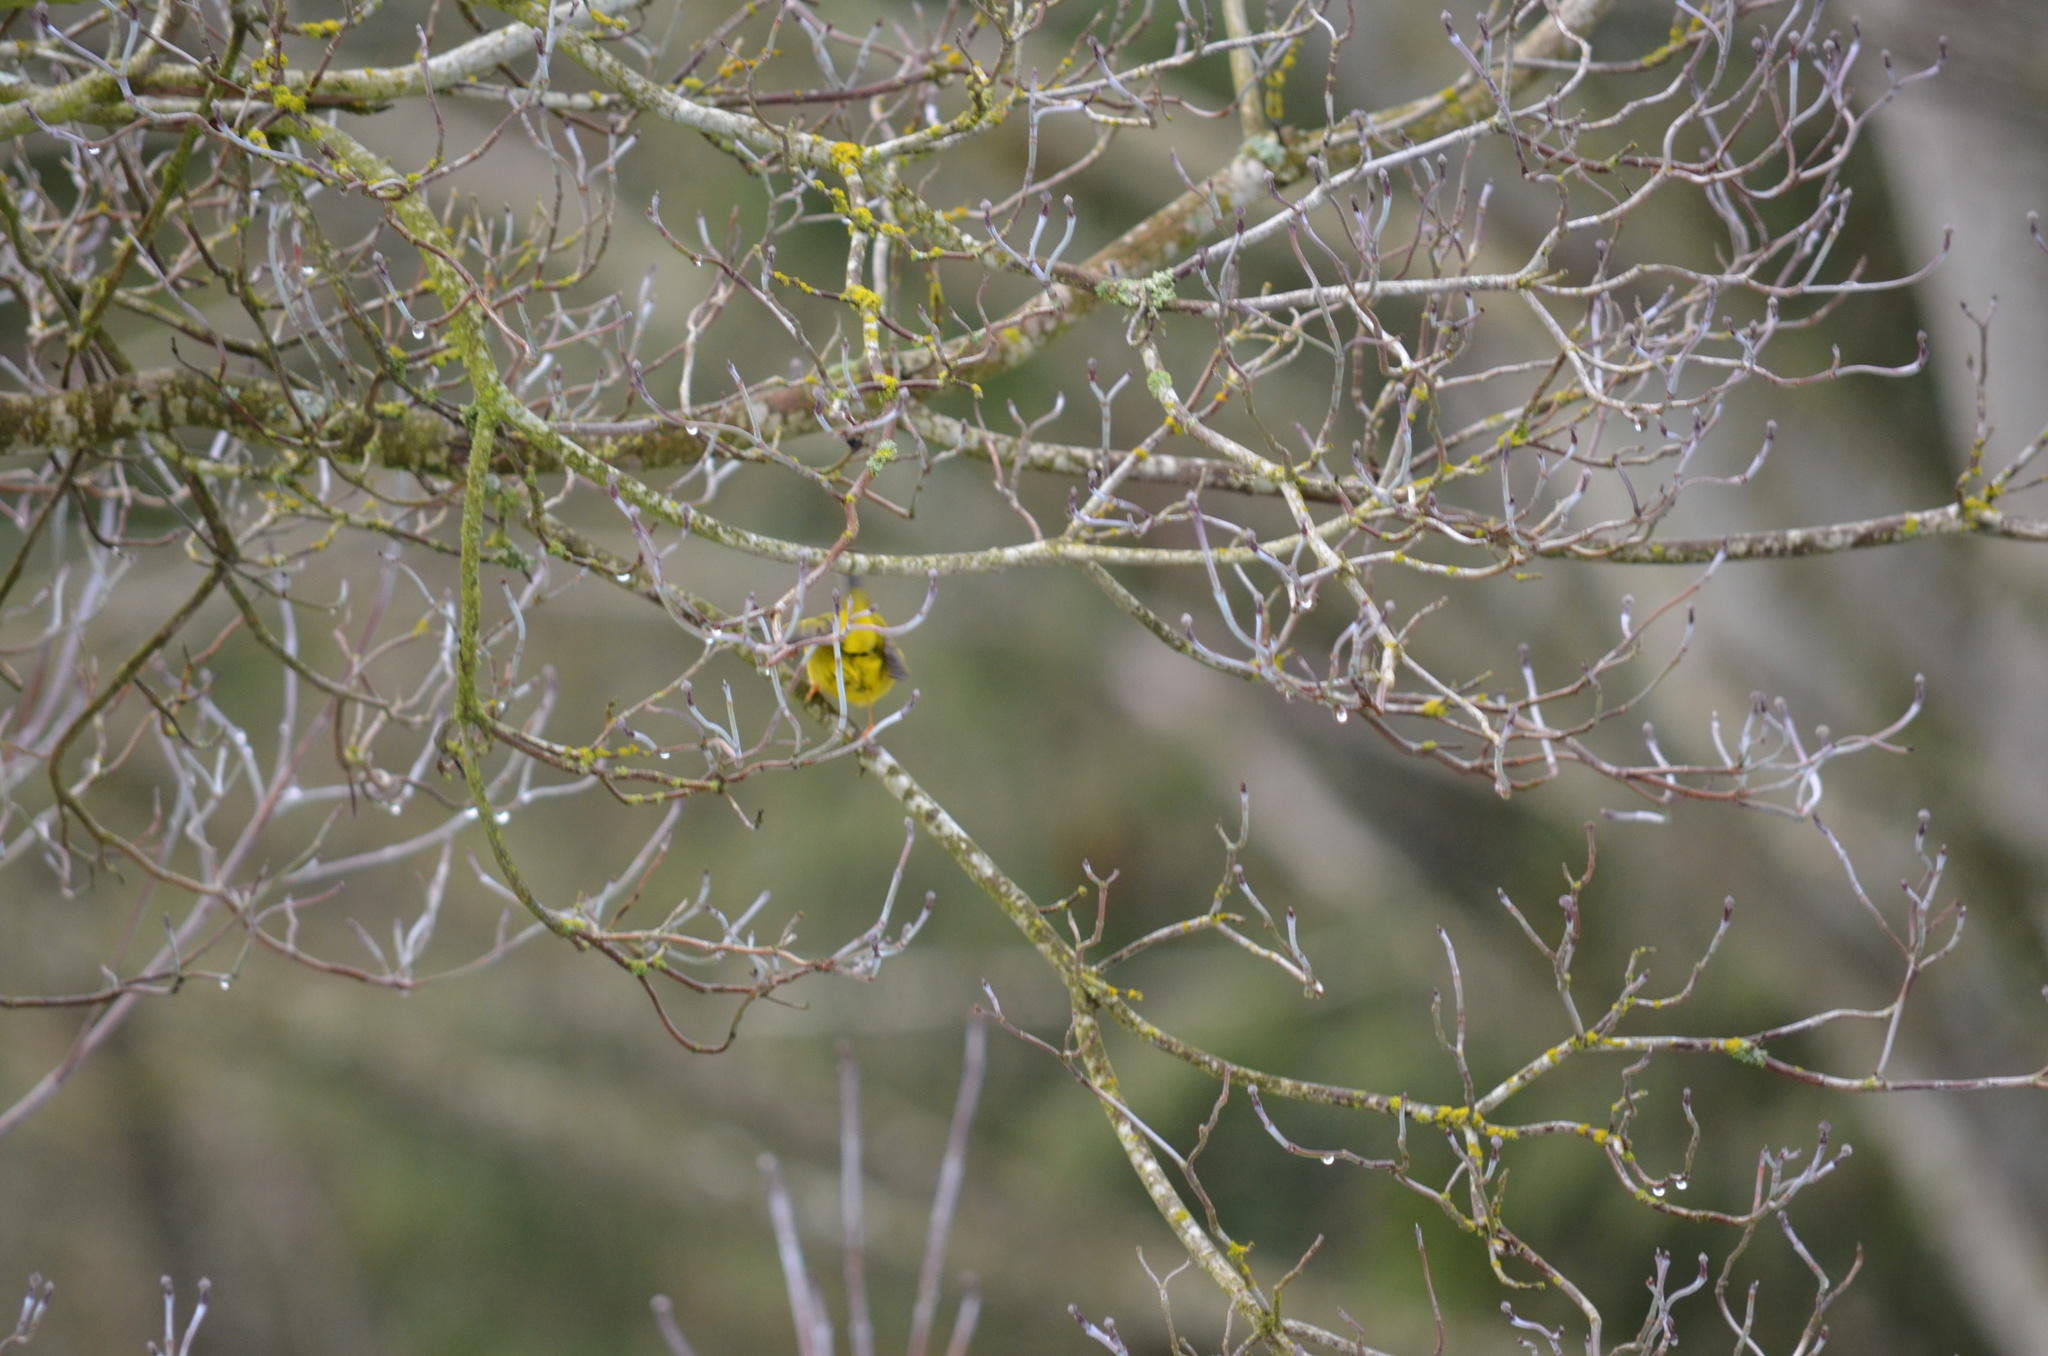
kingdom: Animalia
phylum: Chordata
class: Aves
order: Passeriformes
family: Parulidae
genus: Cardellina
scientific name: Cardellina pusilla
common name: Wilson's warbler
